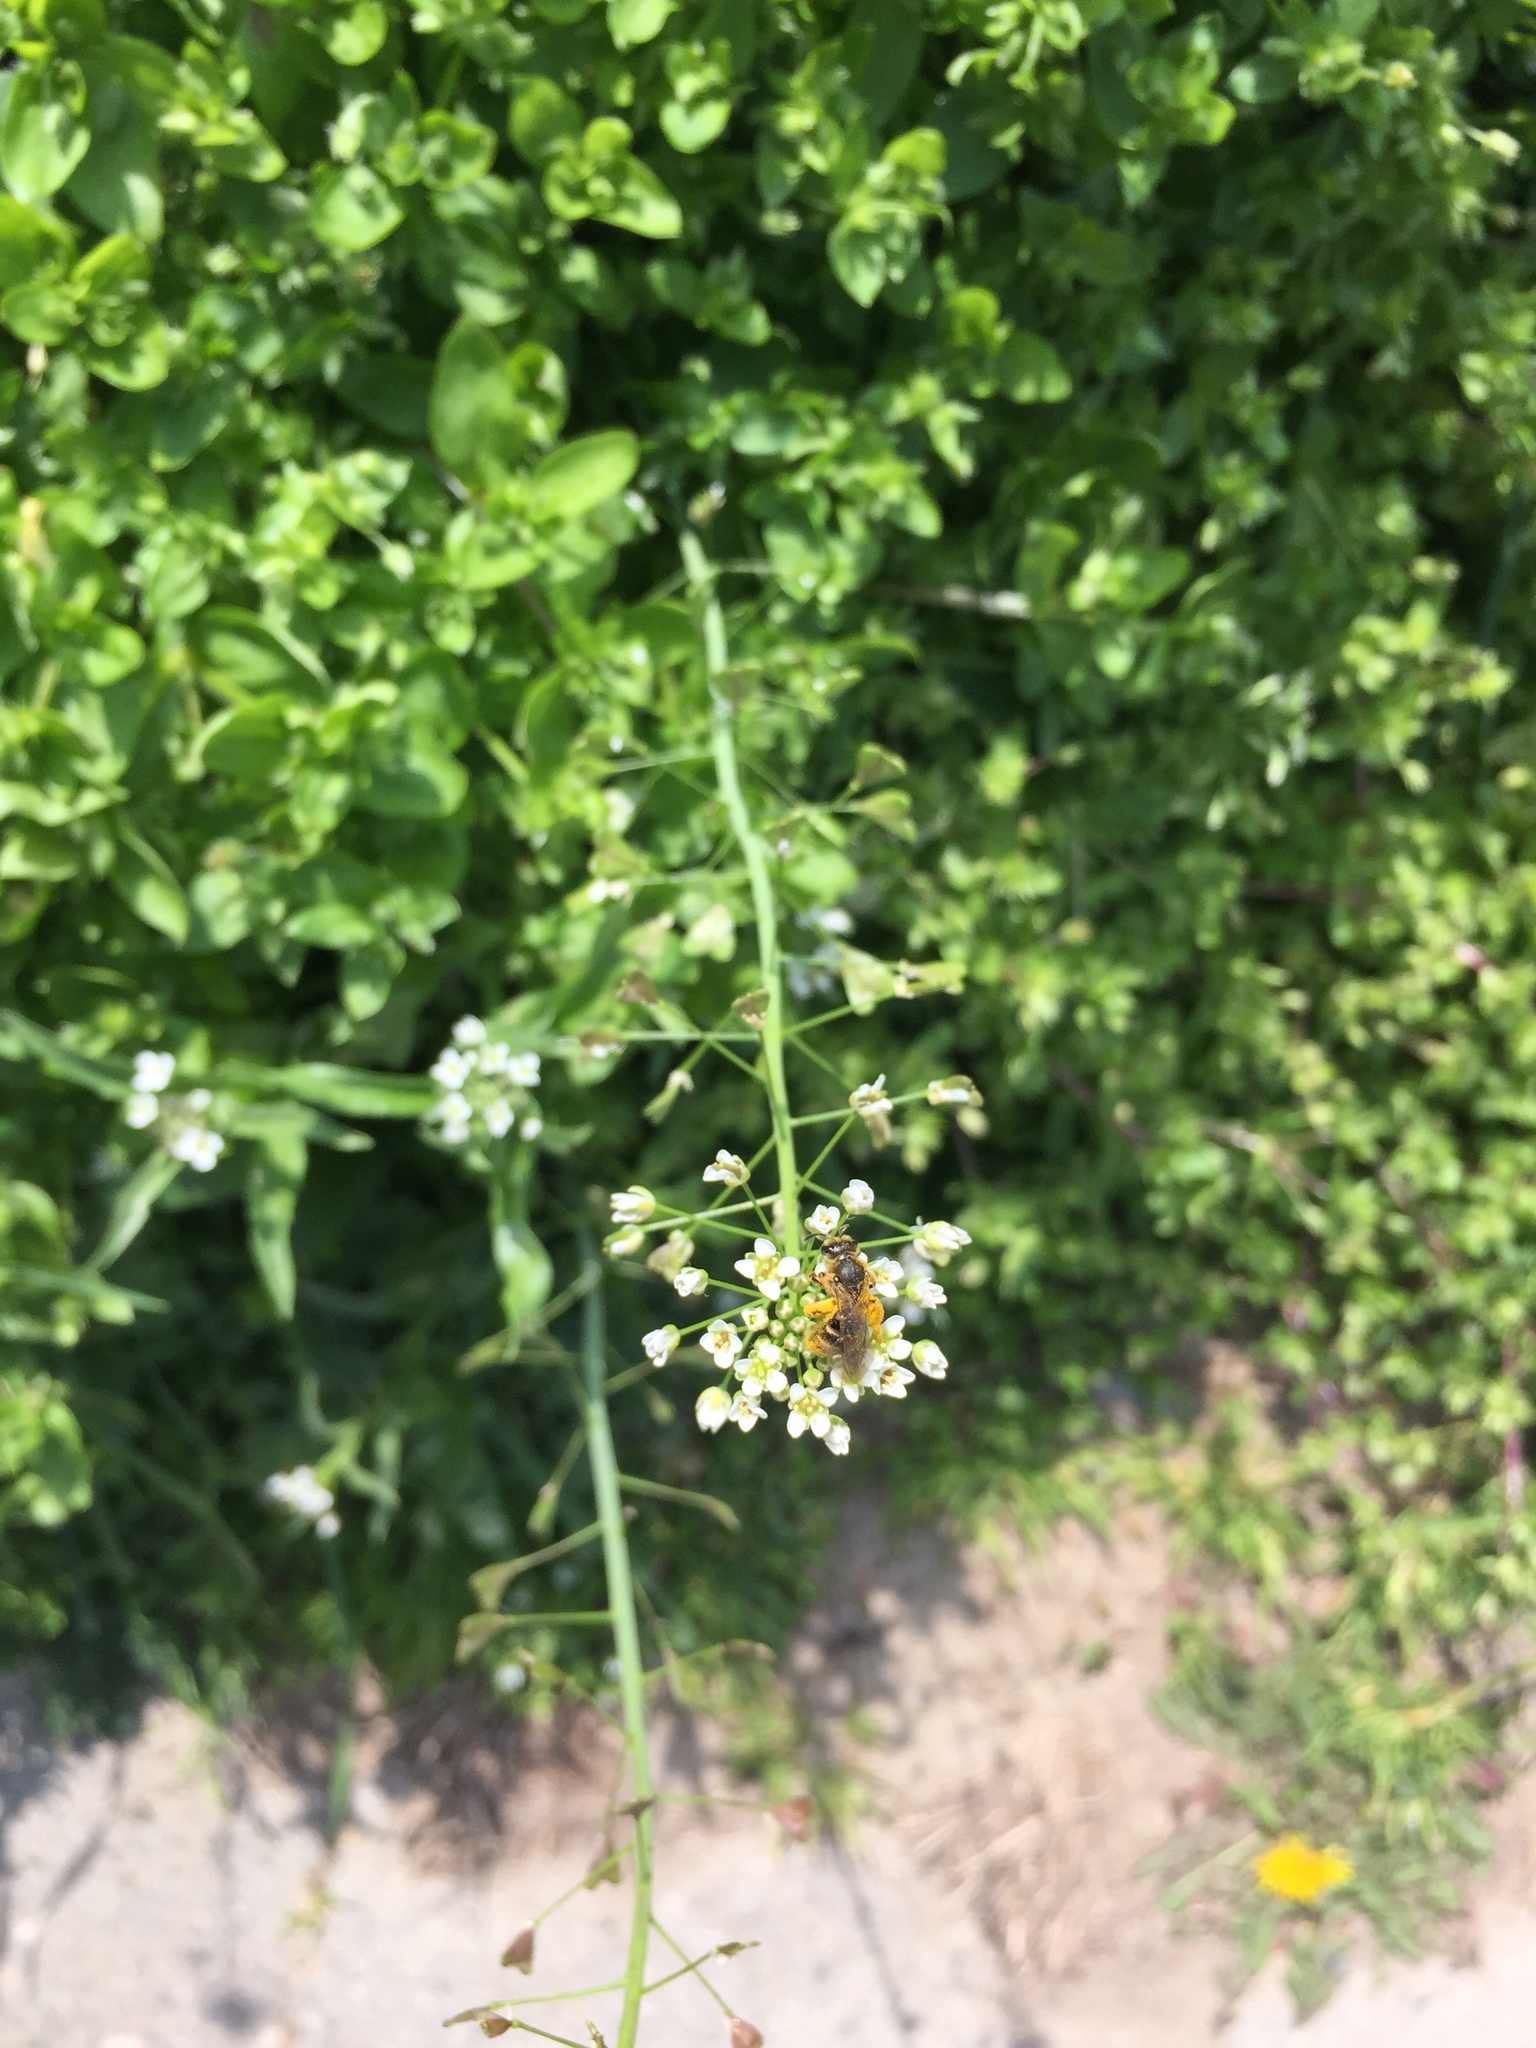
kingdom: Plantae
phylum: Tracheophyta
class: Magnoliopsida
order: Brassicales
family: Brassicaceae
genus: Capsella
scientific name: Capsella bursa-pastoris
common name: Shepherd's purse
